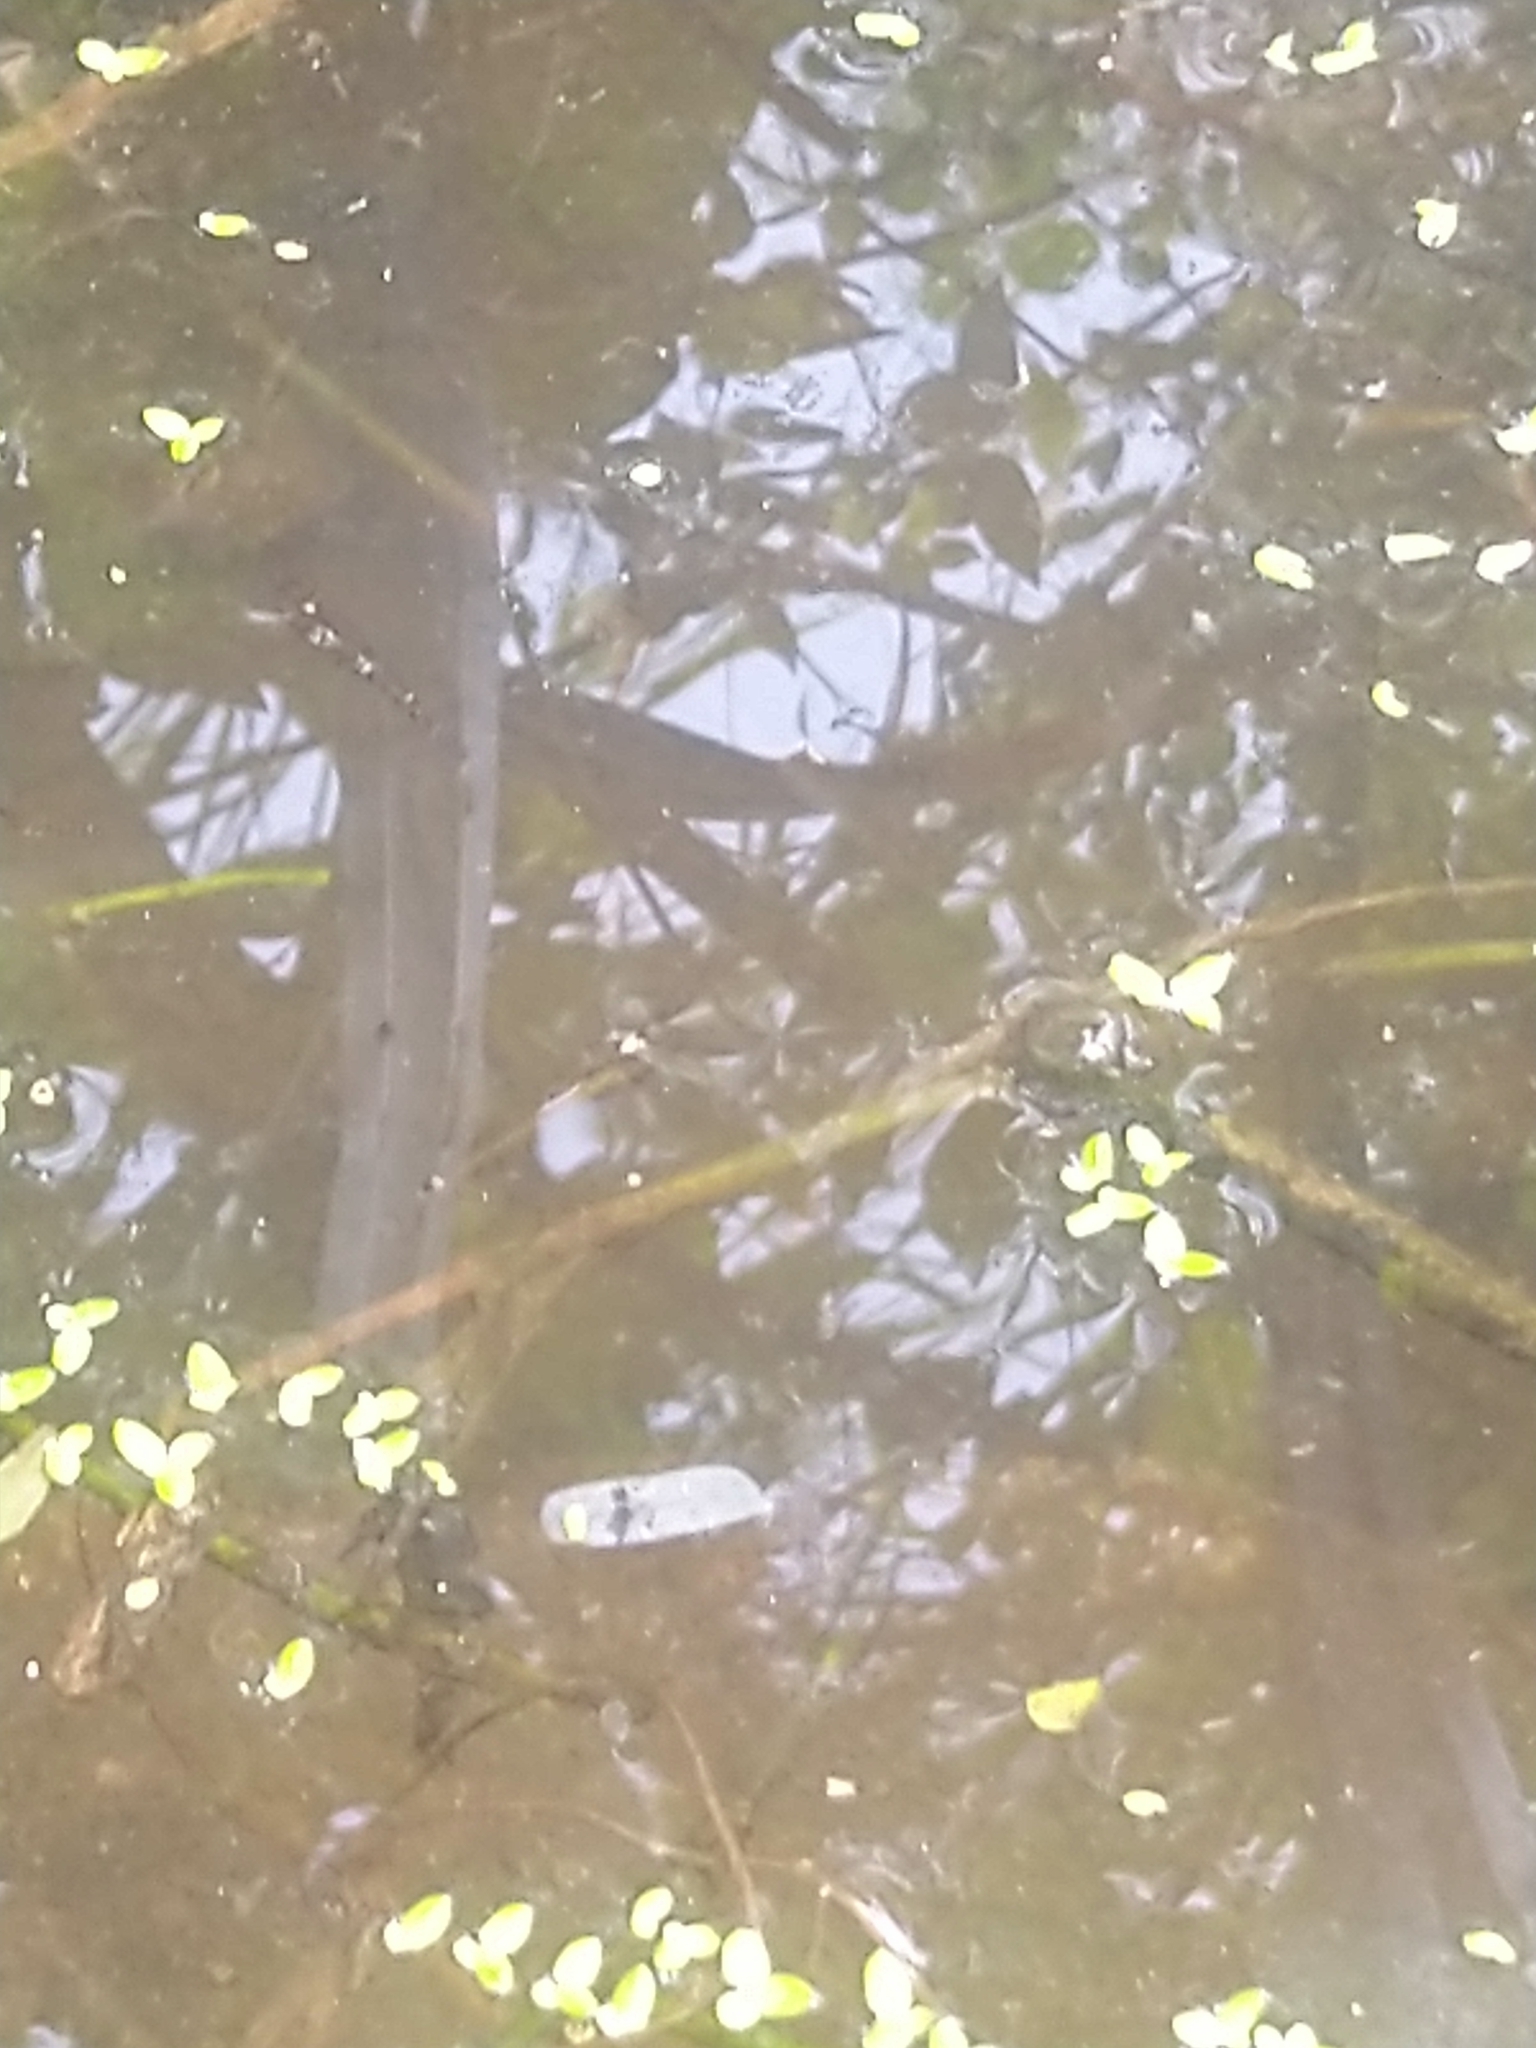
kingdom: Animalia
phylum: Chordata
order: Cyprinodontiformes
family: Aplocheilidae
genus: Aplocheilus
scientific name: Aplocheilus lineatus
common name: Striped panchax
